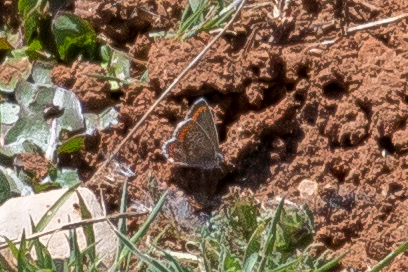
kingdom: Animalia
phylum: Arthropoda
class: Insecta
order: Lepidoptera
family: Lycaenidae
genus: Aricia
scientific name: Aricia cramera
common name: Eschscholtz´s brown  argus
